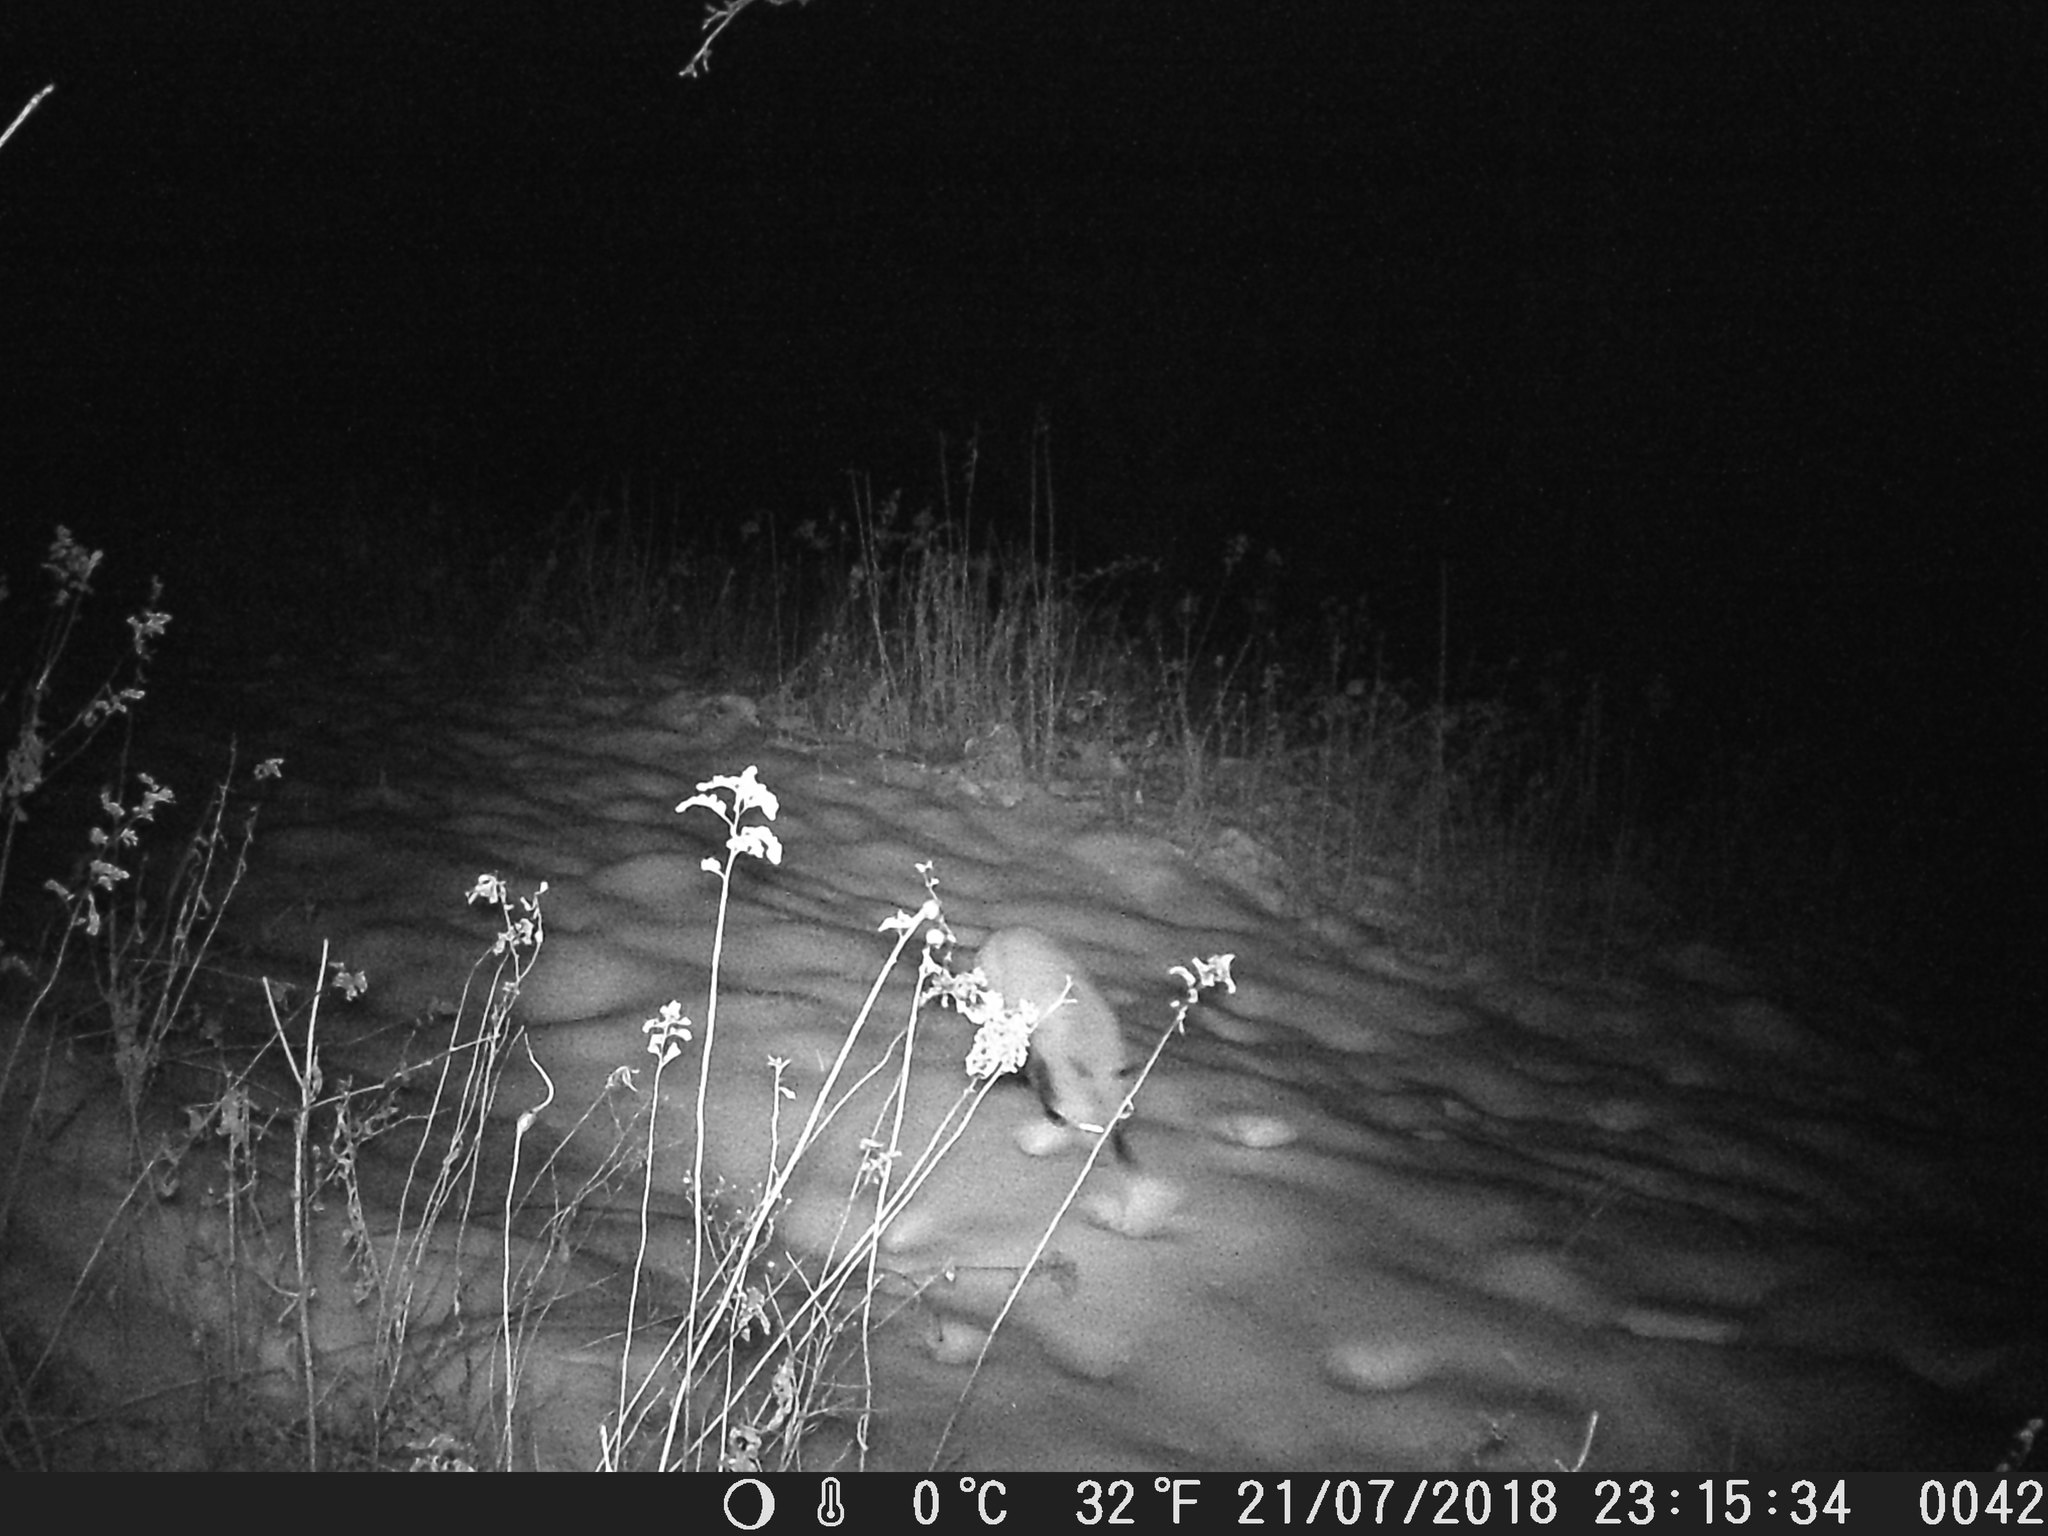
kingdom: Animalia
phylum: Chordata
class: Mammalia
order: Carnivora
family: Canidae
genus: Vulpes
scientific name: Vulpes vulpes
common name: Red fox
